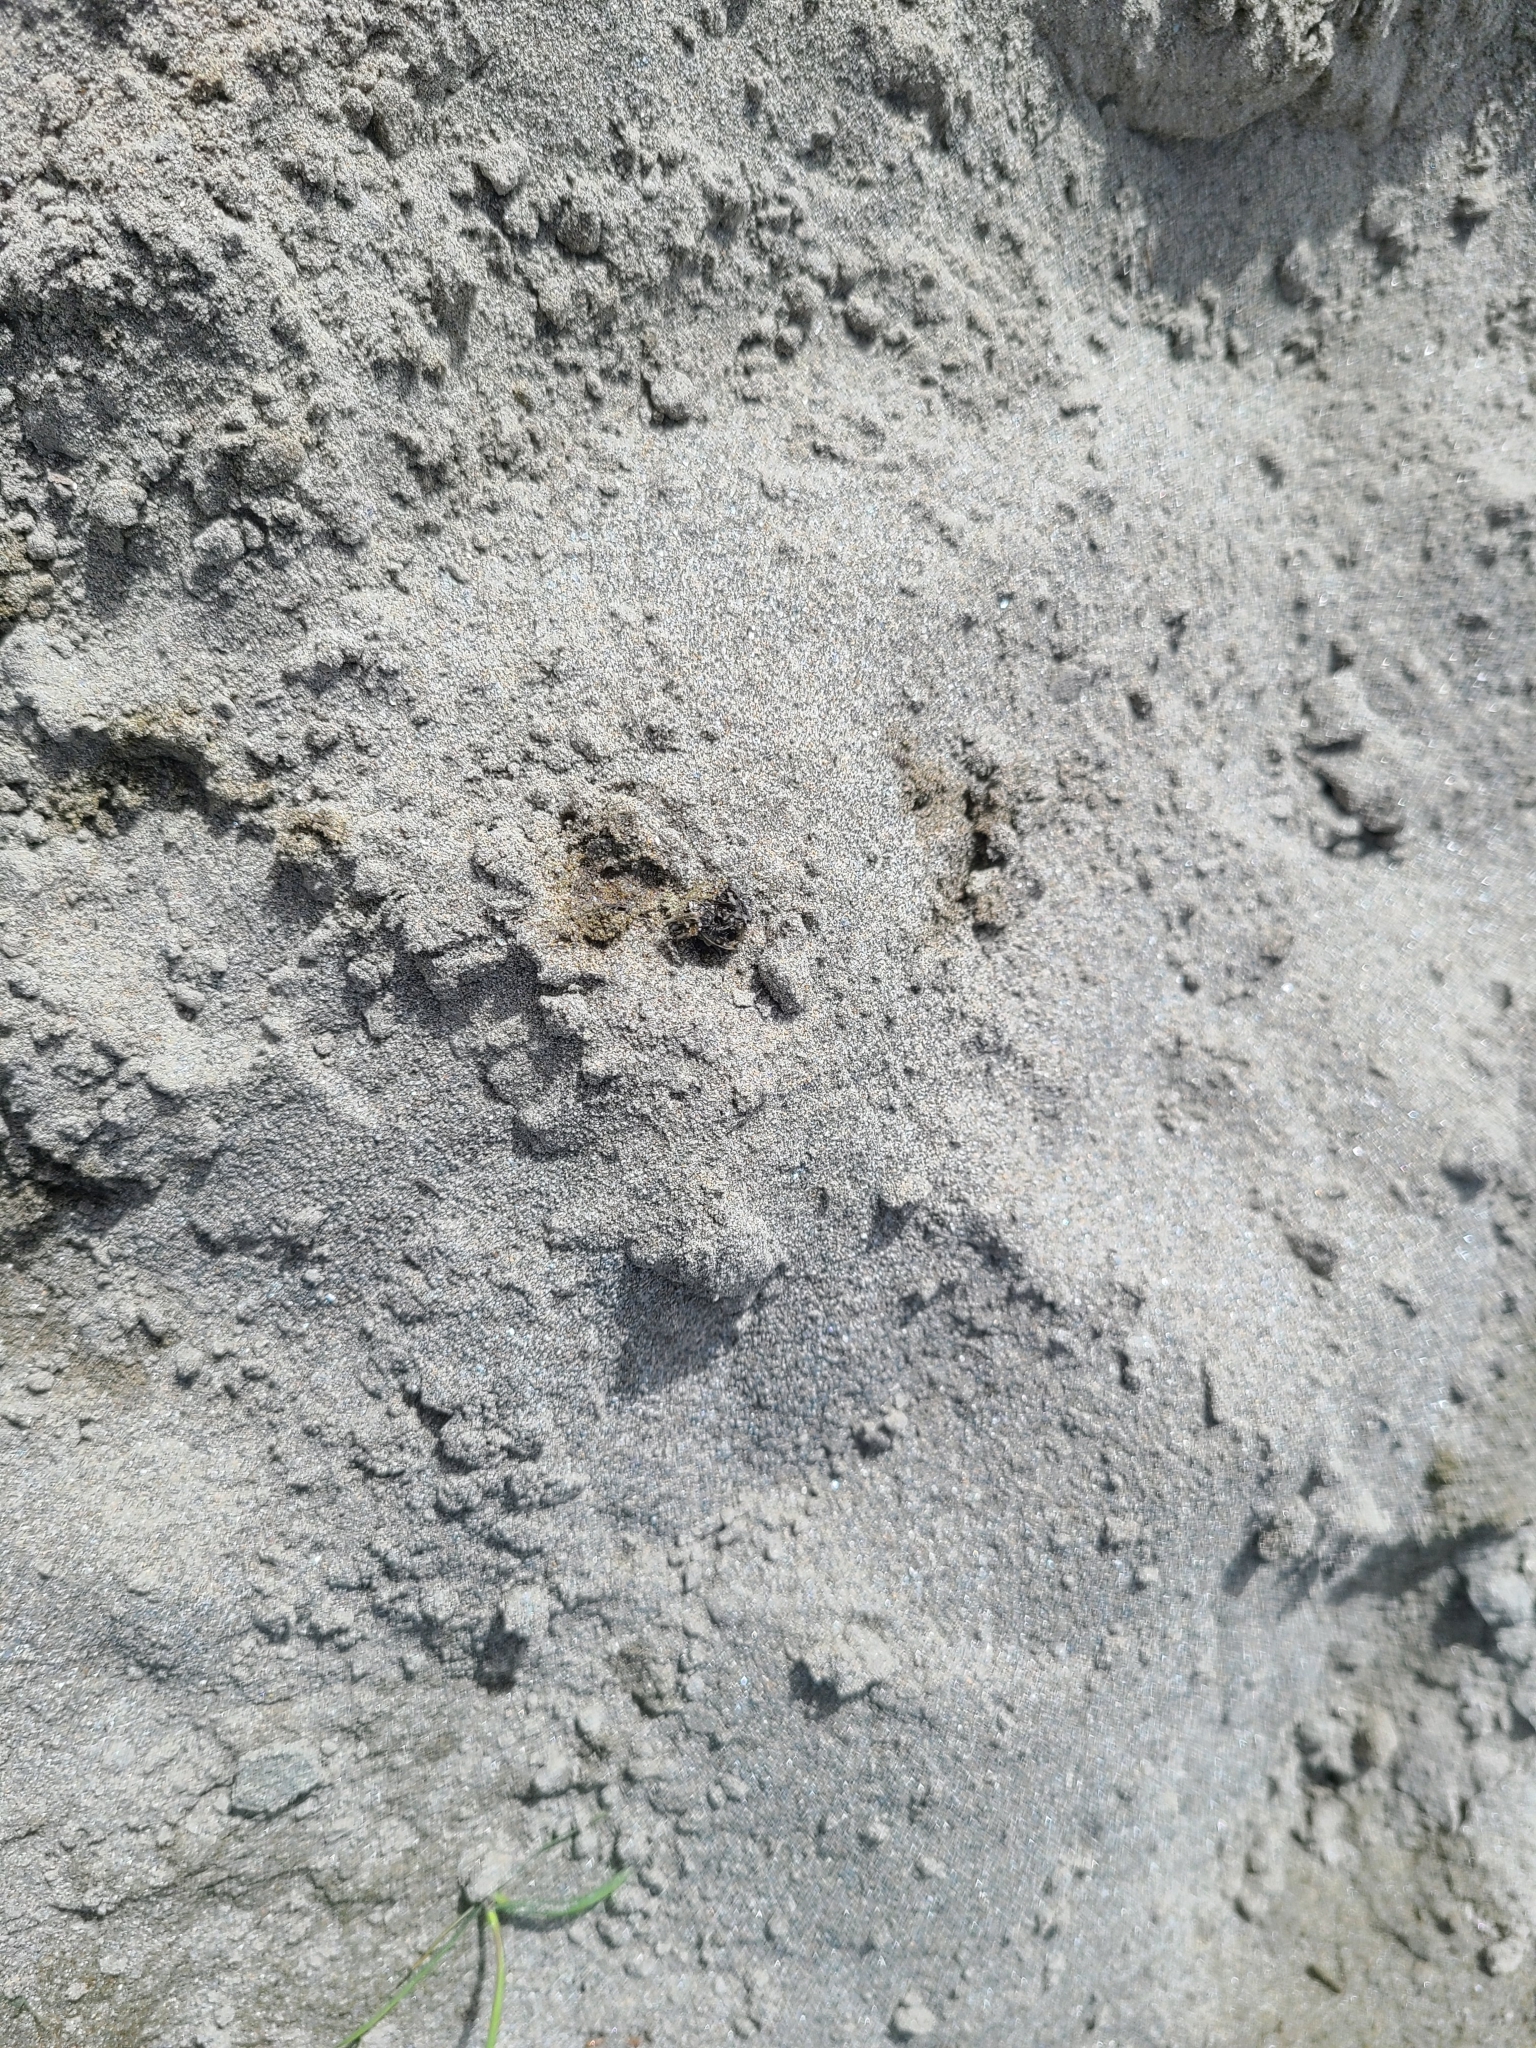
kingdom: Animalia
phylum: Chordata
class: Mammalia
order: Carnivora
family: Mustelidae
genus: Lutra
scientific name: Lutra lutra
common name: European otter
